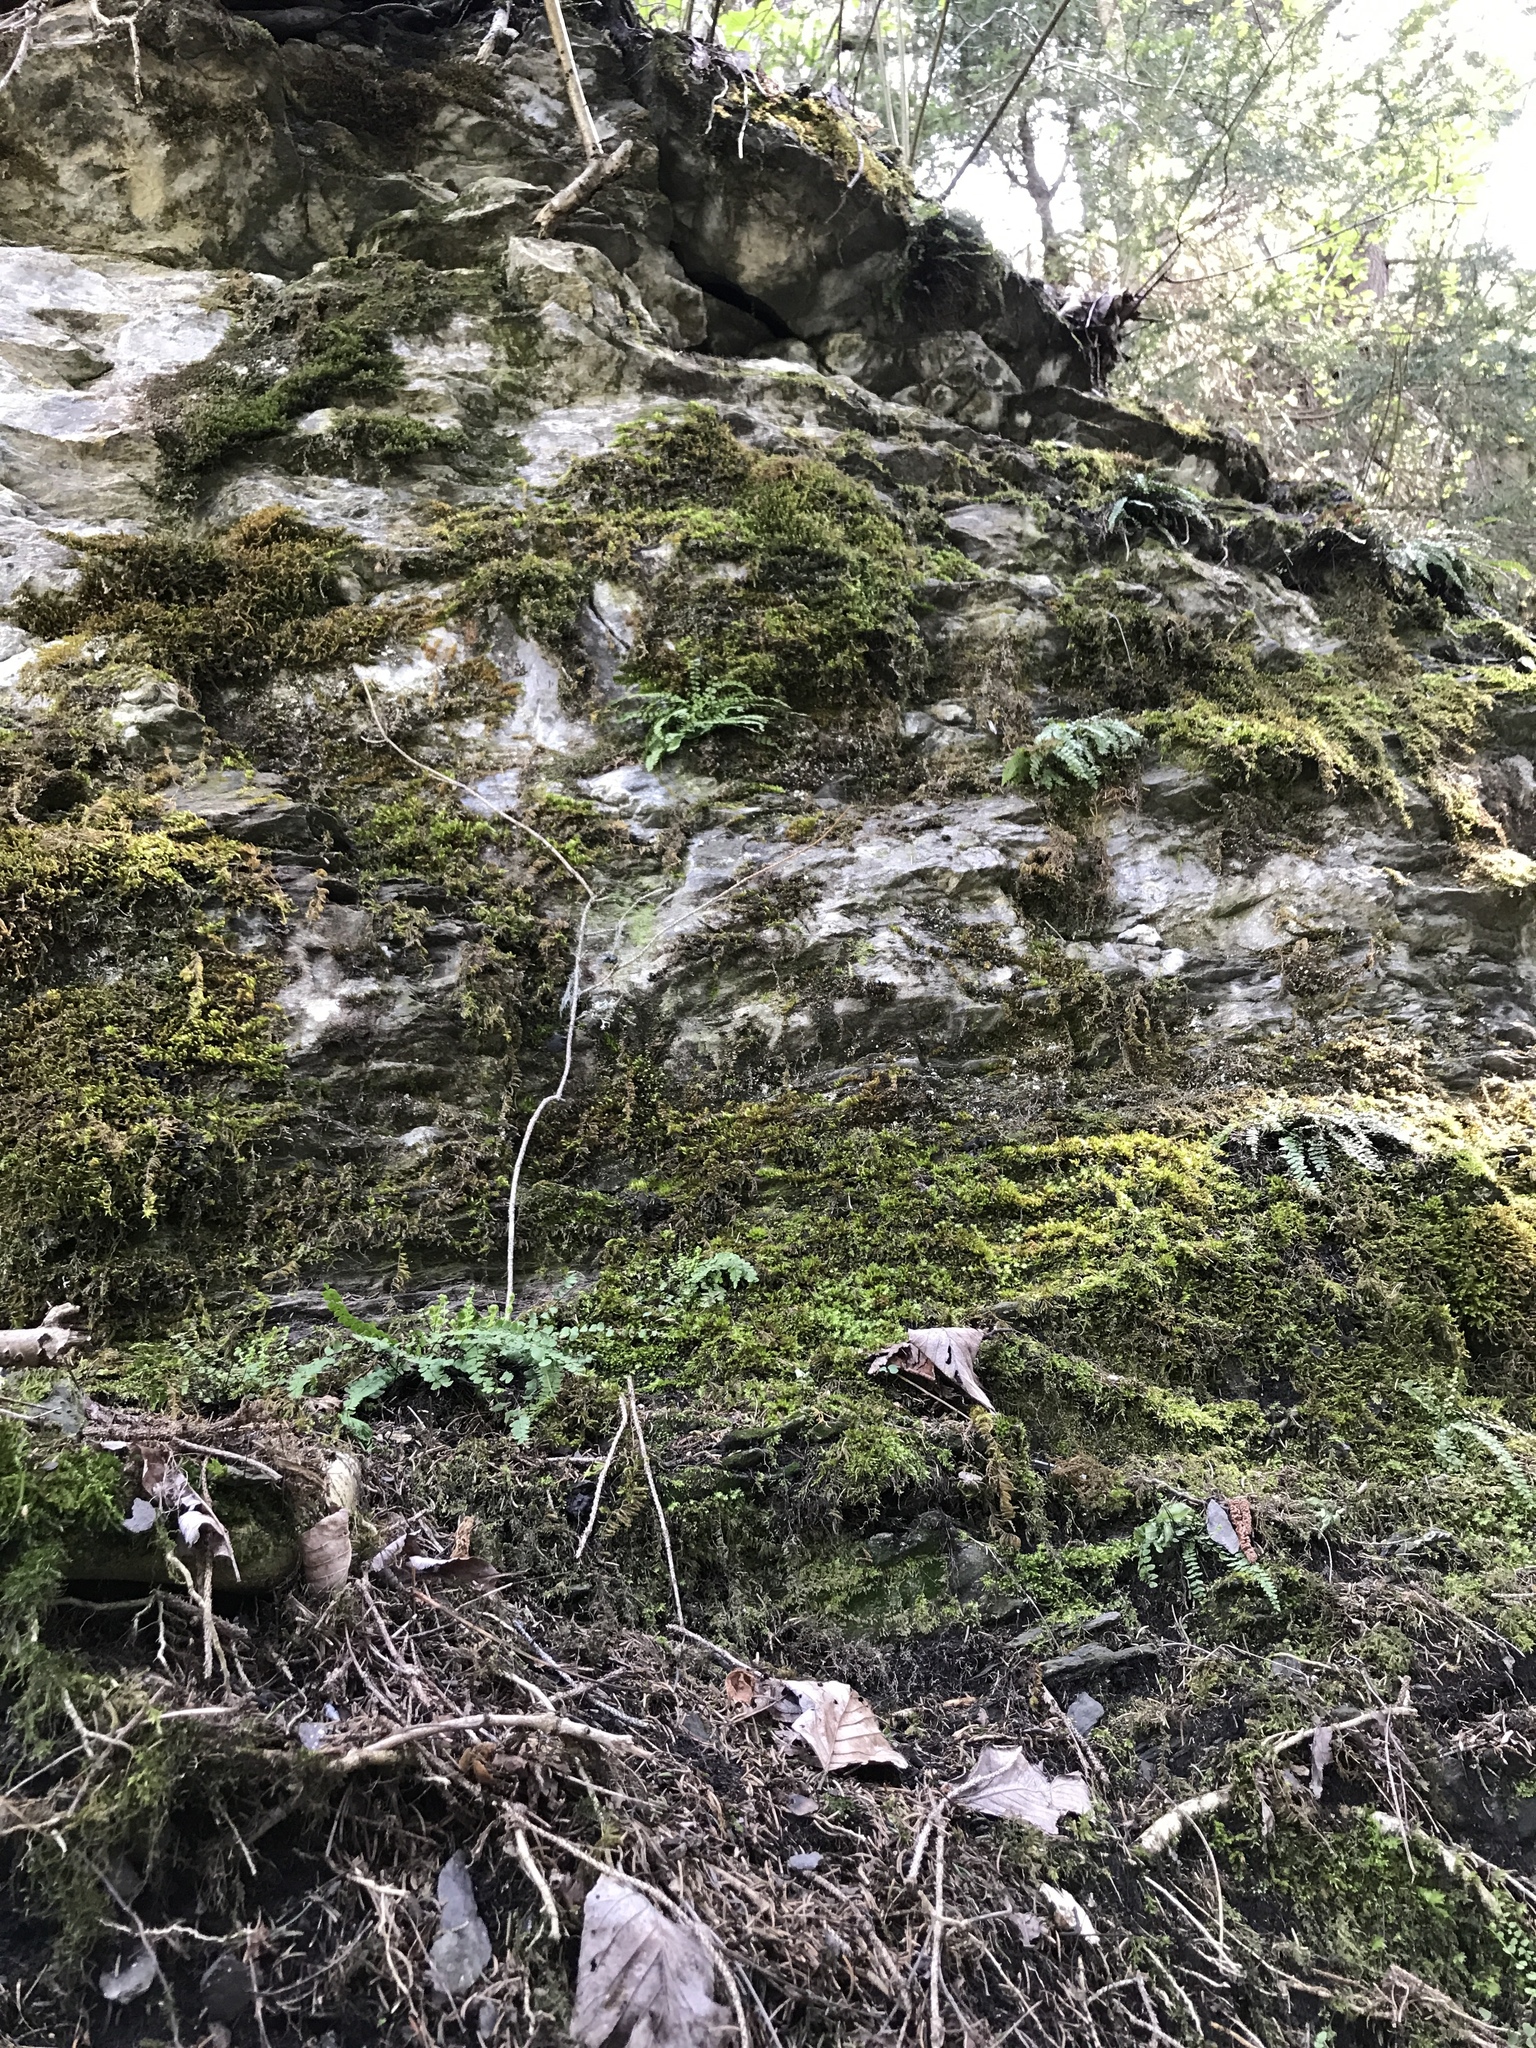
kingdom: Plantae
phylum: Tracheophyta
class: Polypodiopsida
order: Polypodiales
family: Aspleniaceae
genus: Asplenium
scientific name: Asplenium trichomanes
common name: Maidenhair spleenwort
